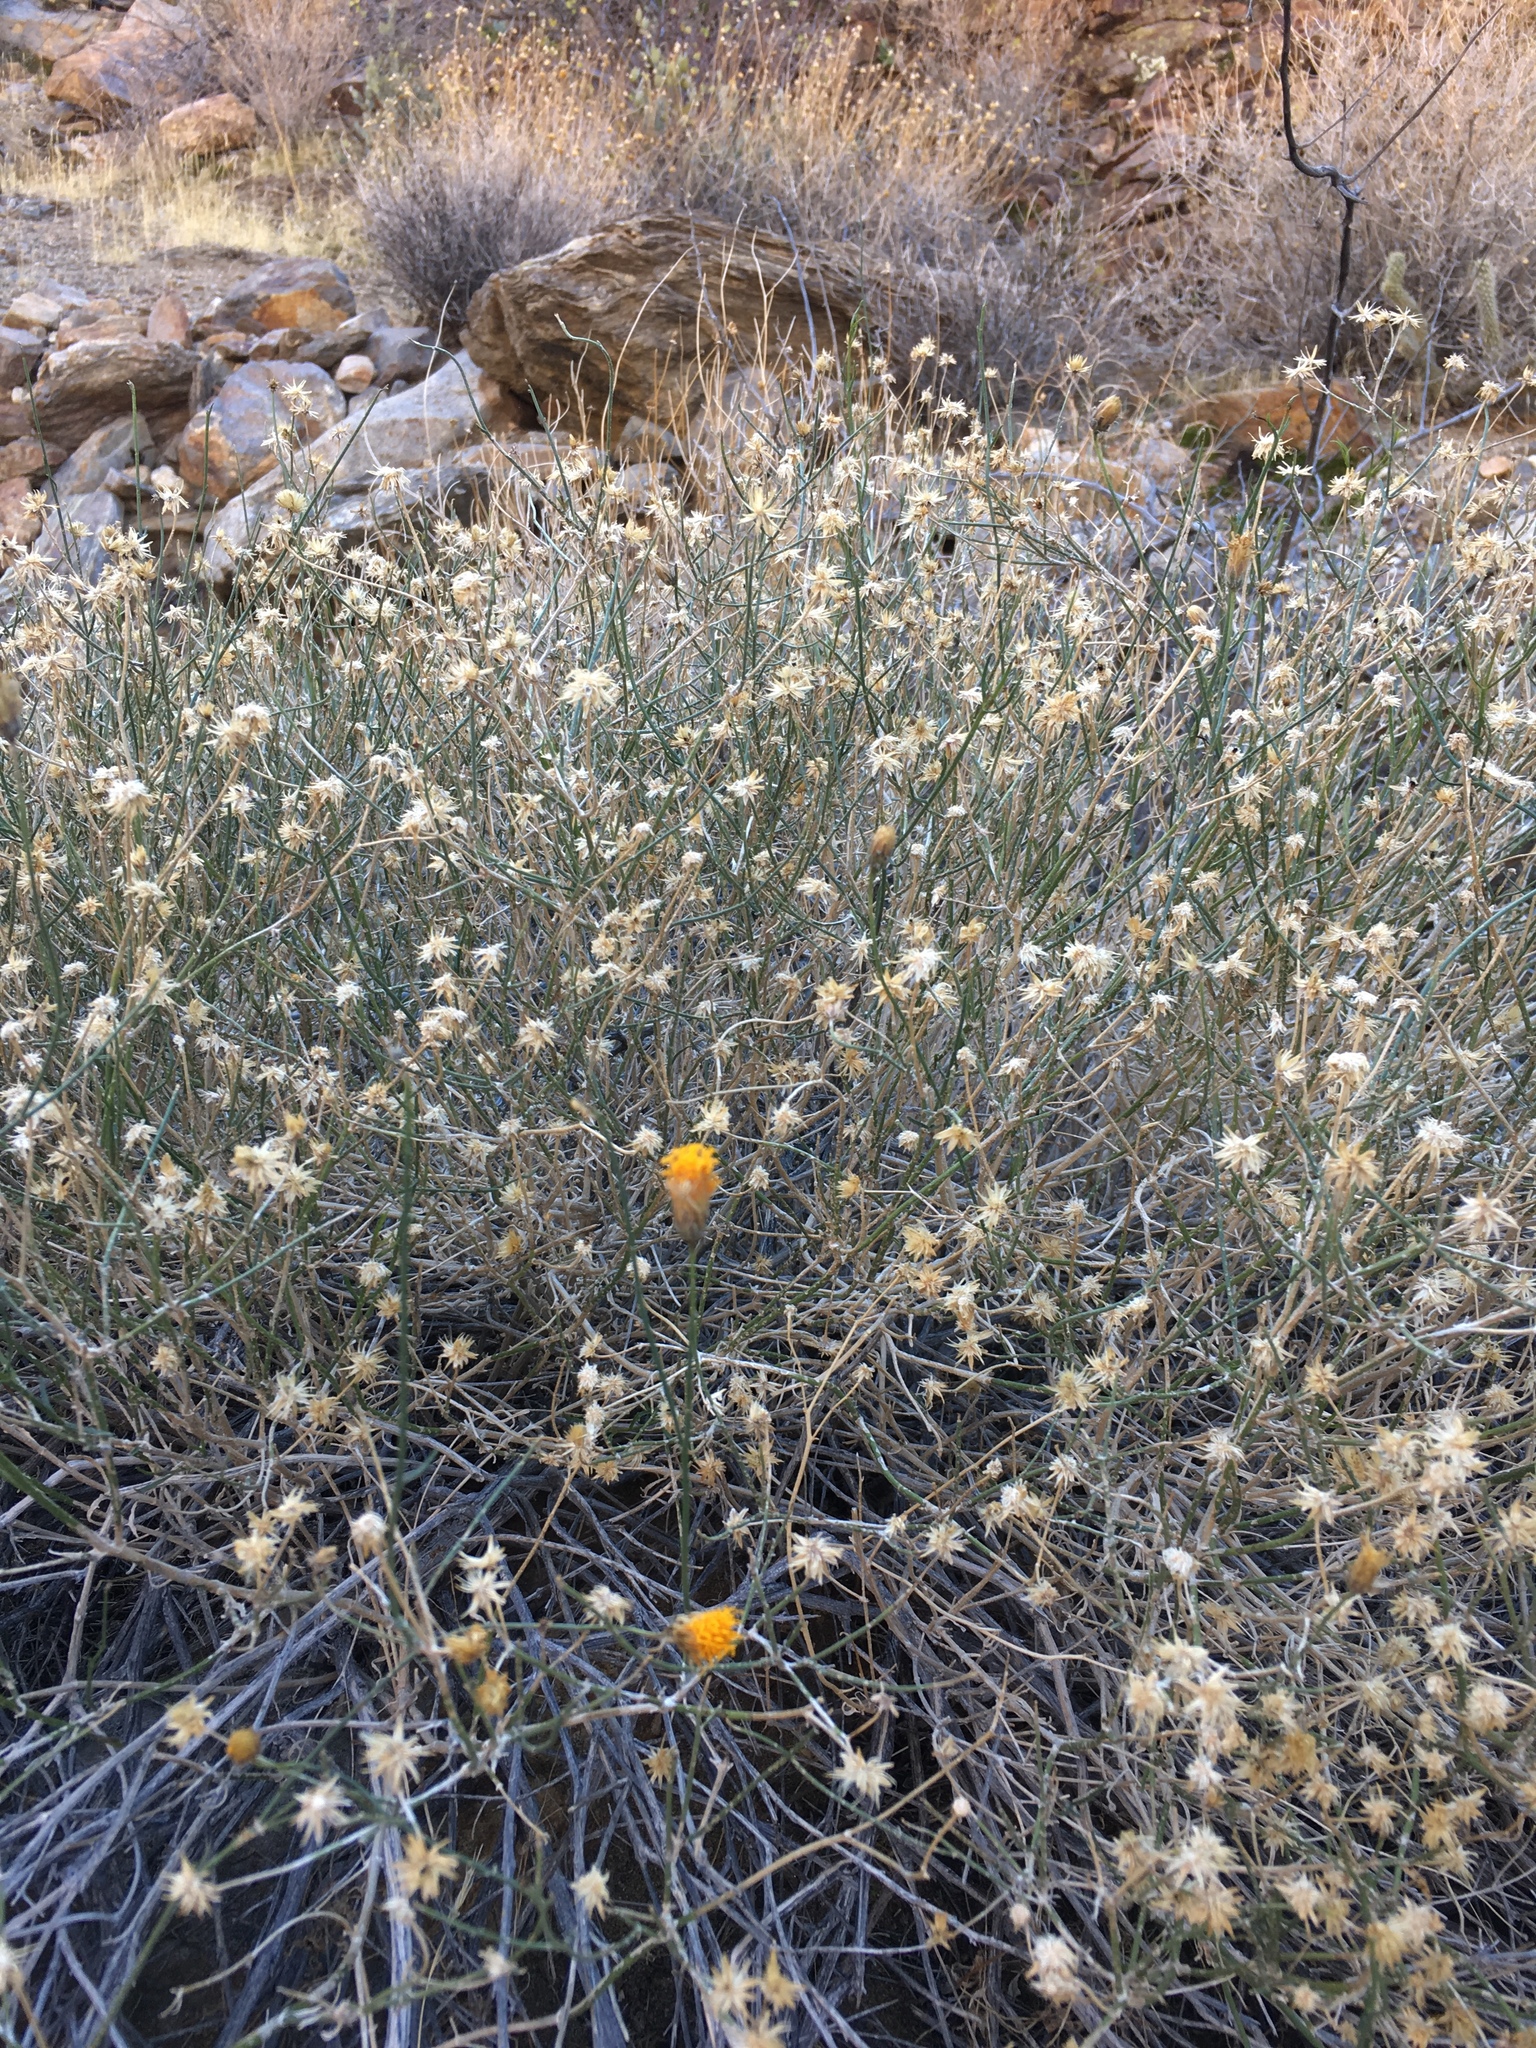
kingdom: Plantae
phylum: Tracheophyta
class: Magnoliopsida
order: Asterales
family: Asteraceae
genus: Bebbia
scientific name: Bebbia juncea
